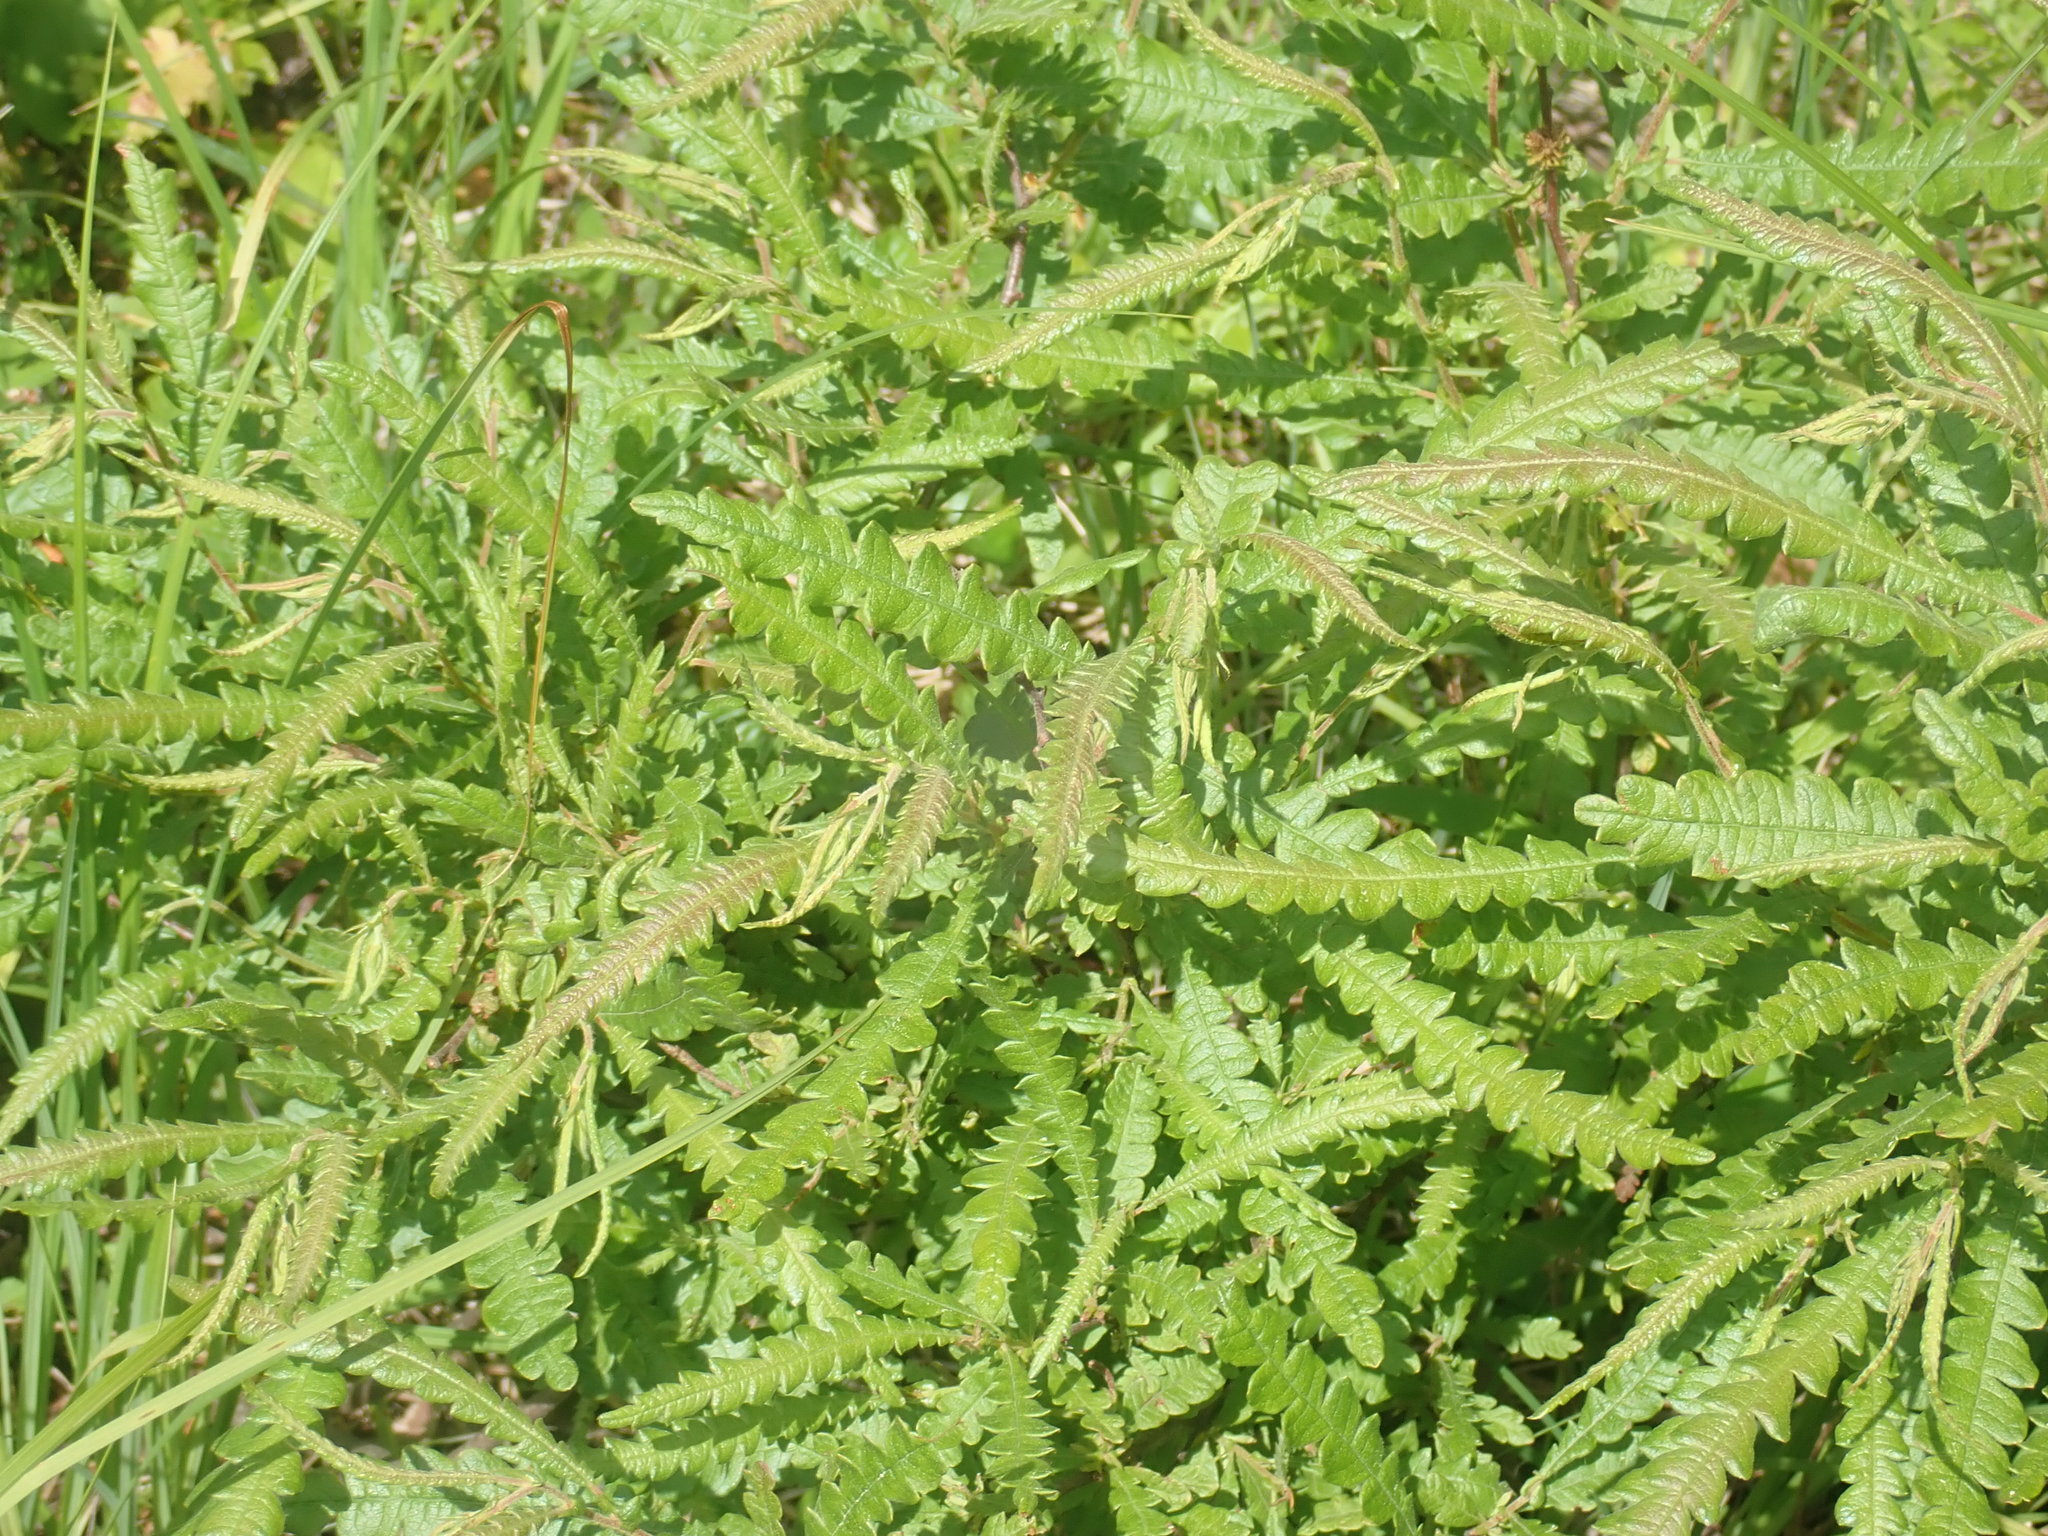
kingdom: Plantae
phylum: Tracheophyta
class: Magnoliopsida
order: Fagales
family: Myricaceae
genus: Comptonia
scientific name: Comptonia peregrina
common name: Sweet-fern
